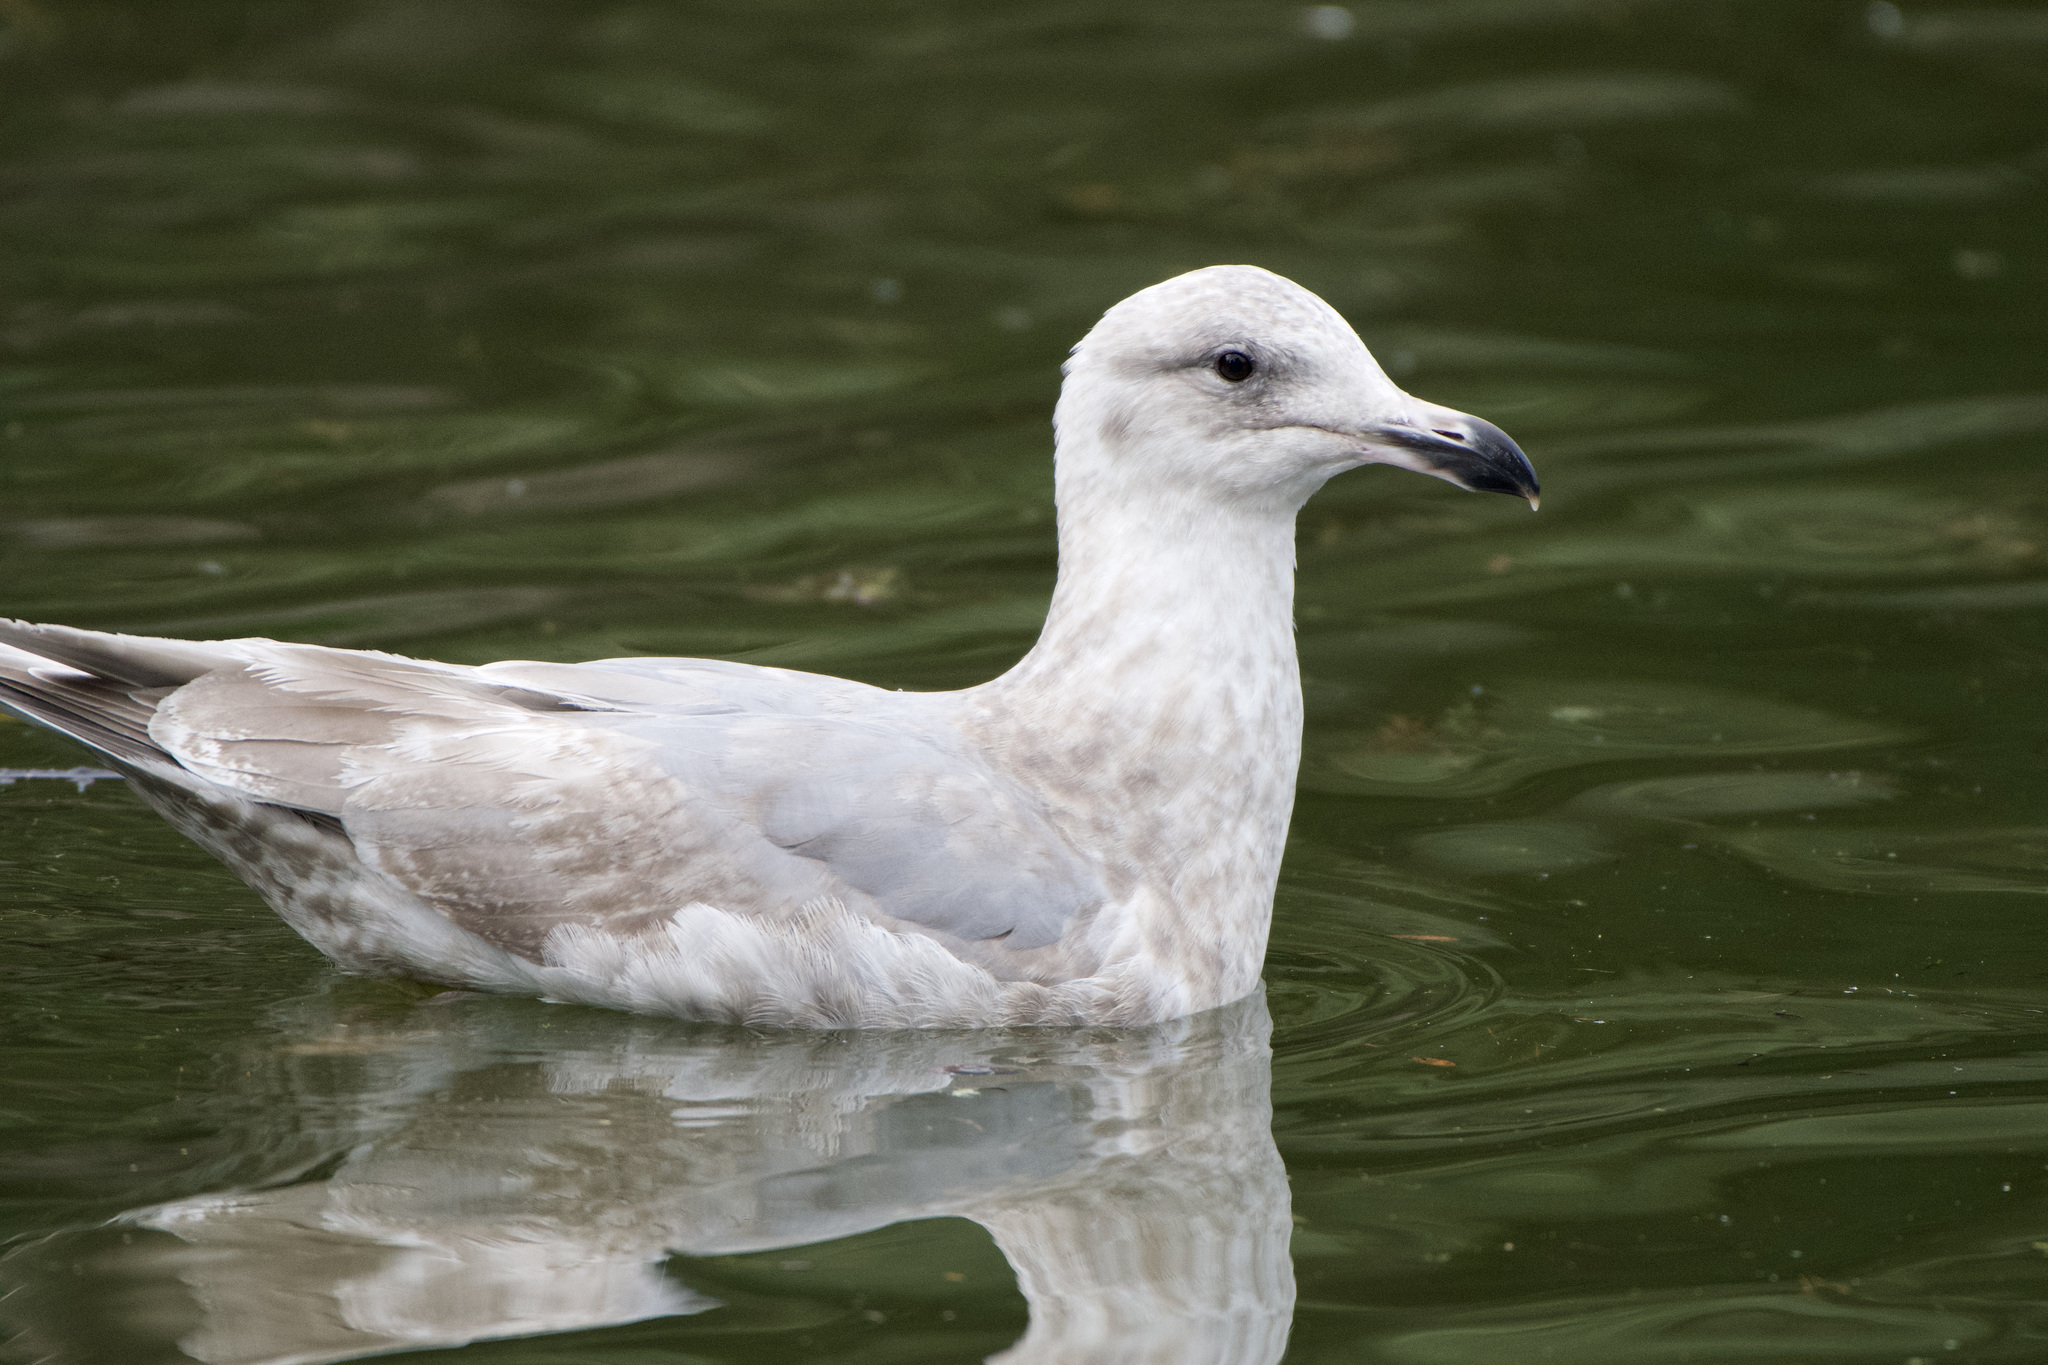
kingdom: Animalia
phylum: Chordata
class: Aves
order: Charadriiformes
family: Laridae
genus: Larus
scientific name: Larus
